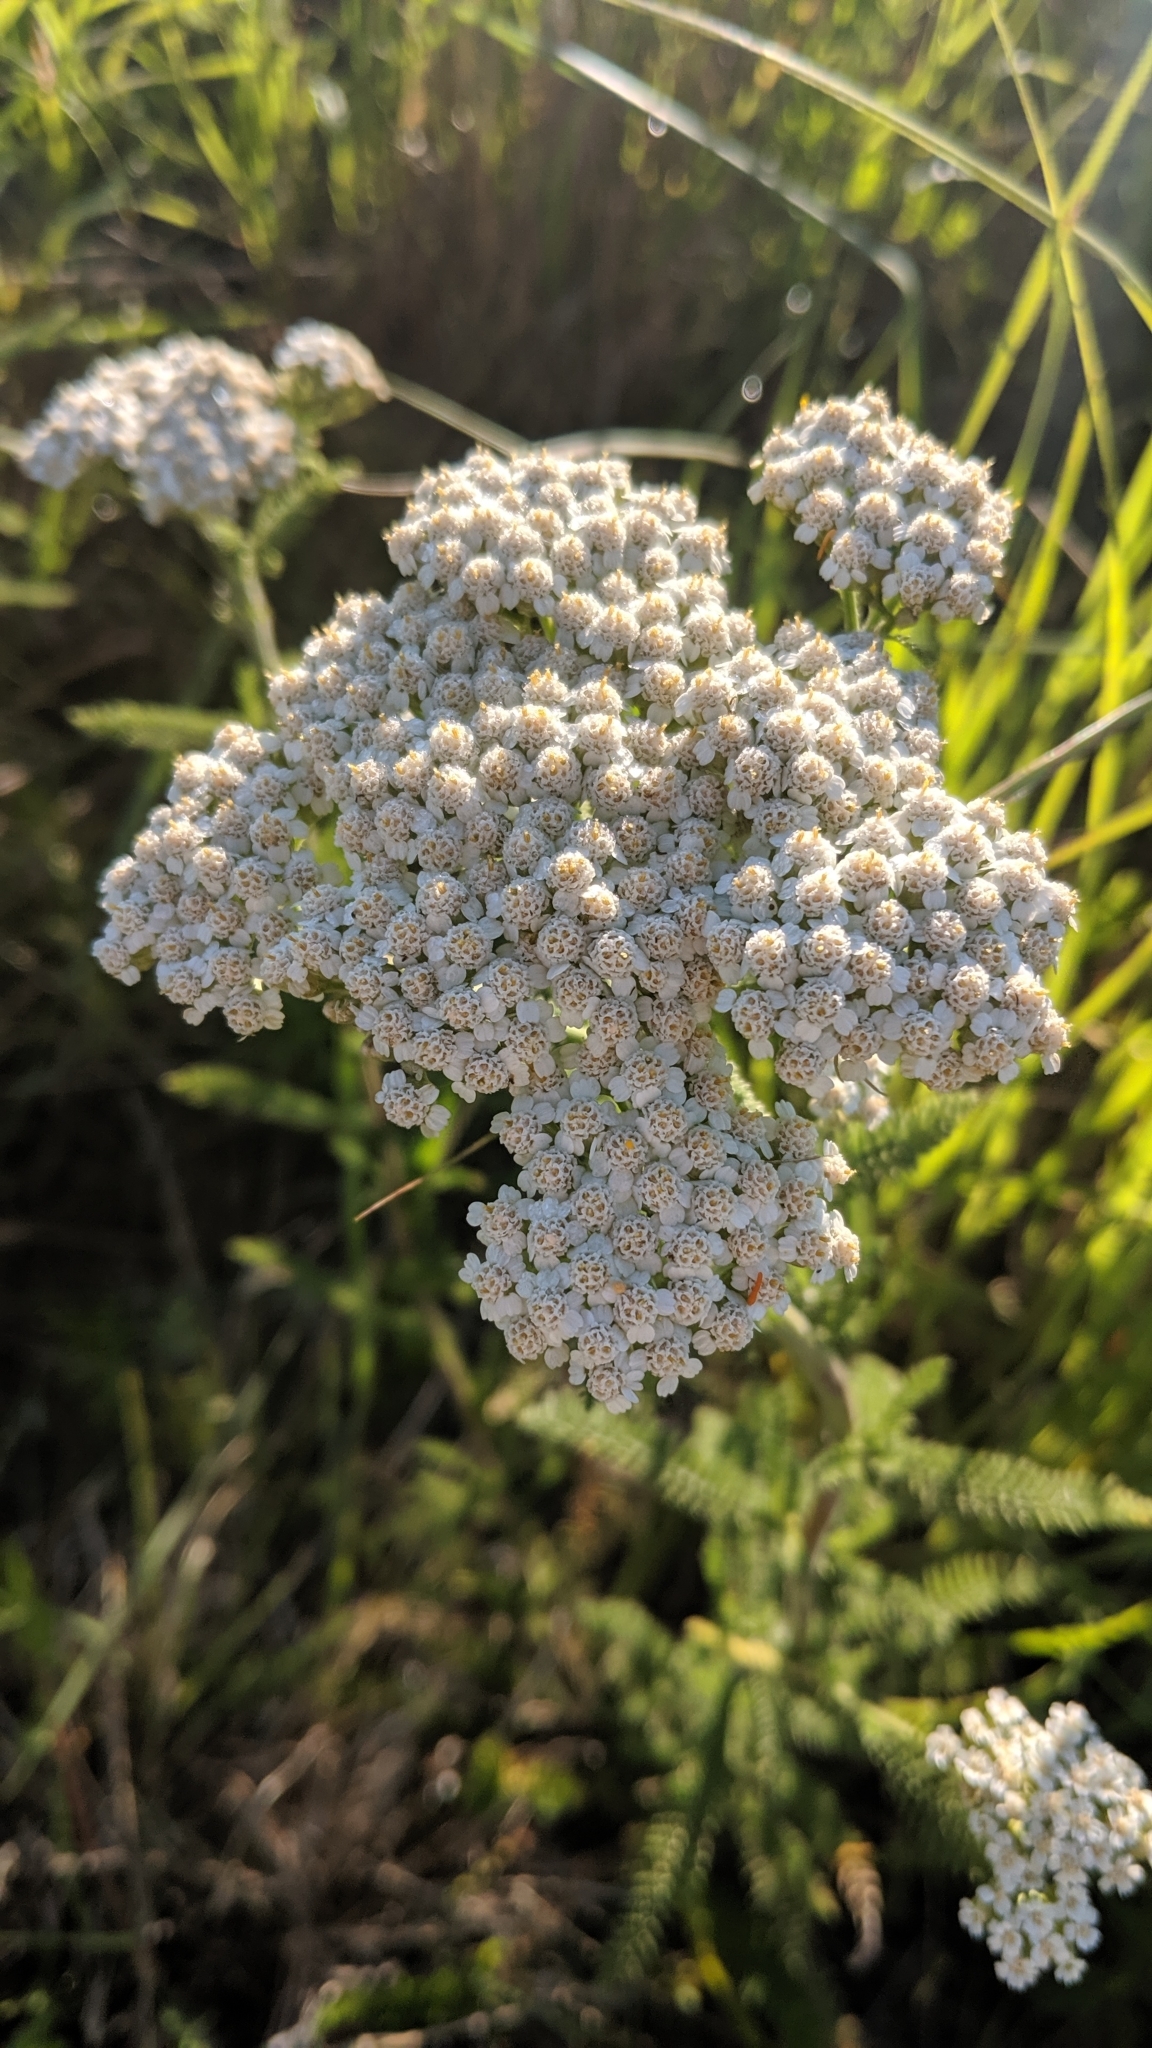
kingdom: Plantae
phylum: Tracheophyta
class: Magnoliopsida
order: Asterales
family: Asteraceae
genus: Achillea
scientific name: Achillea millefolium
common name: Yarrow
